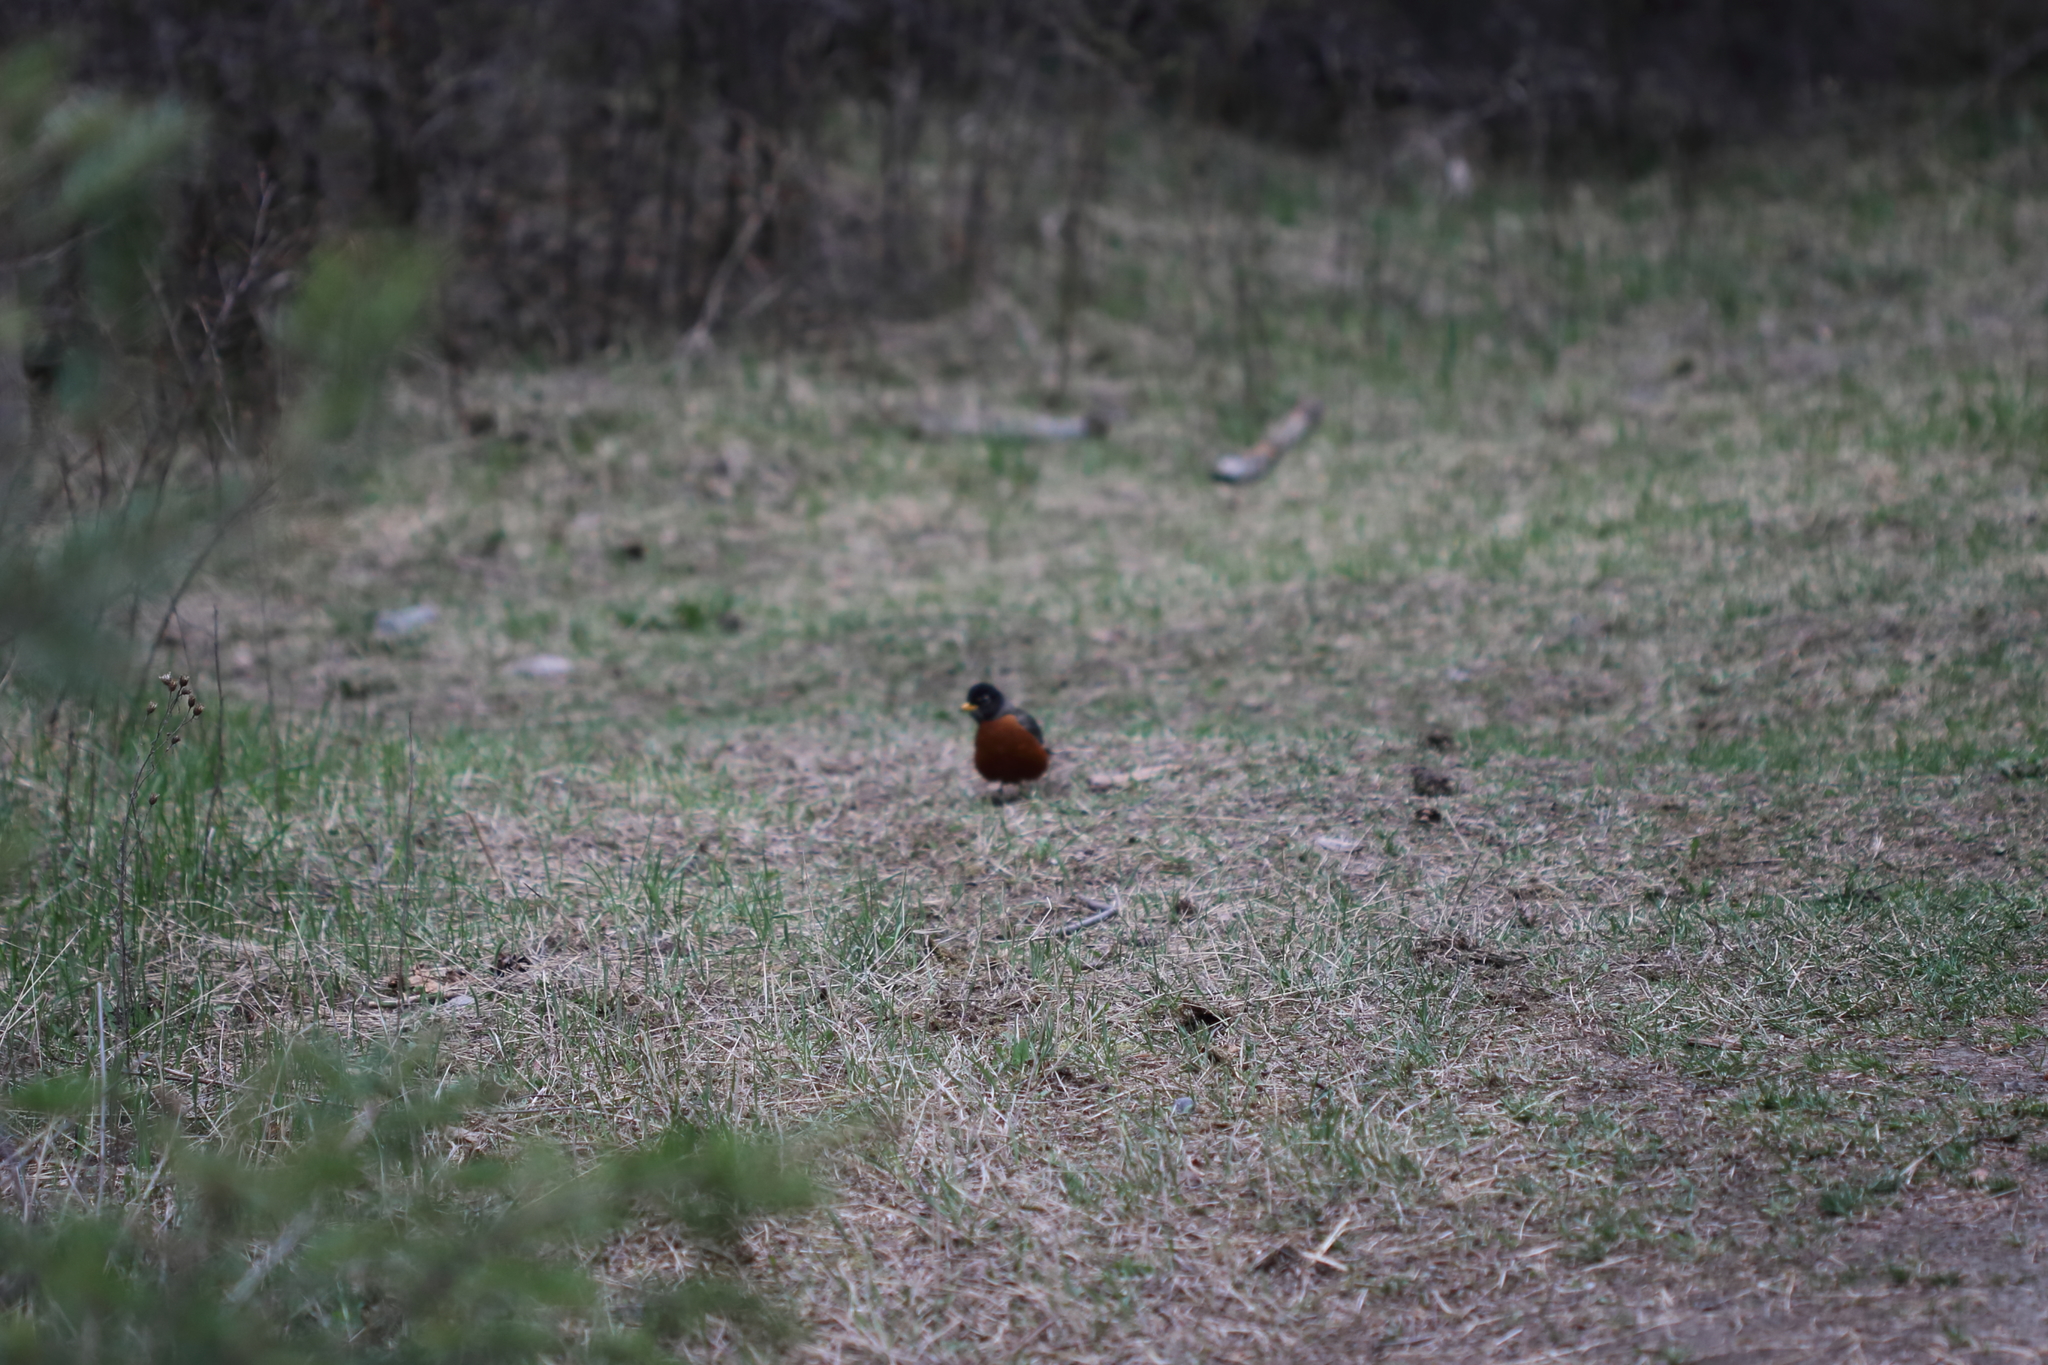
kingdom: Animalia
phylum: Chordata
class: Aves
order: Passeriformes
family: Turdidae
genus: Turdus
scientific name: Turdus migratorius
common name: American robin
